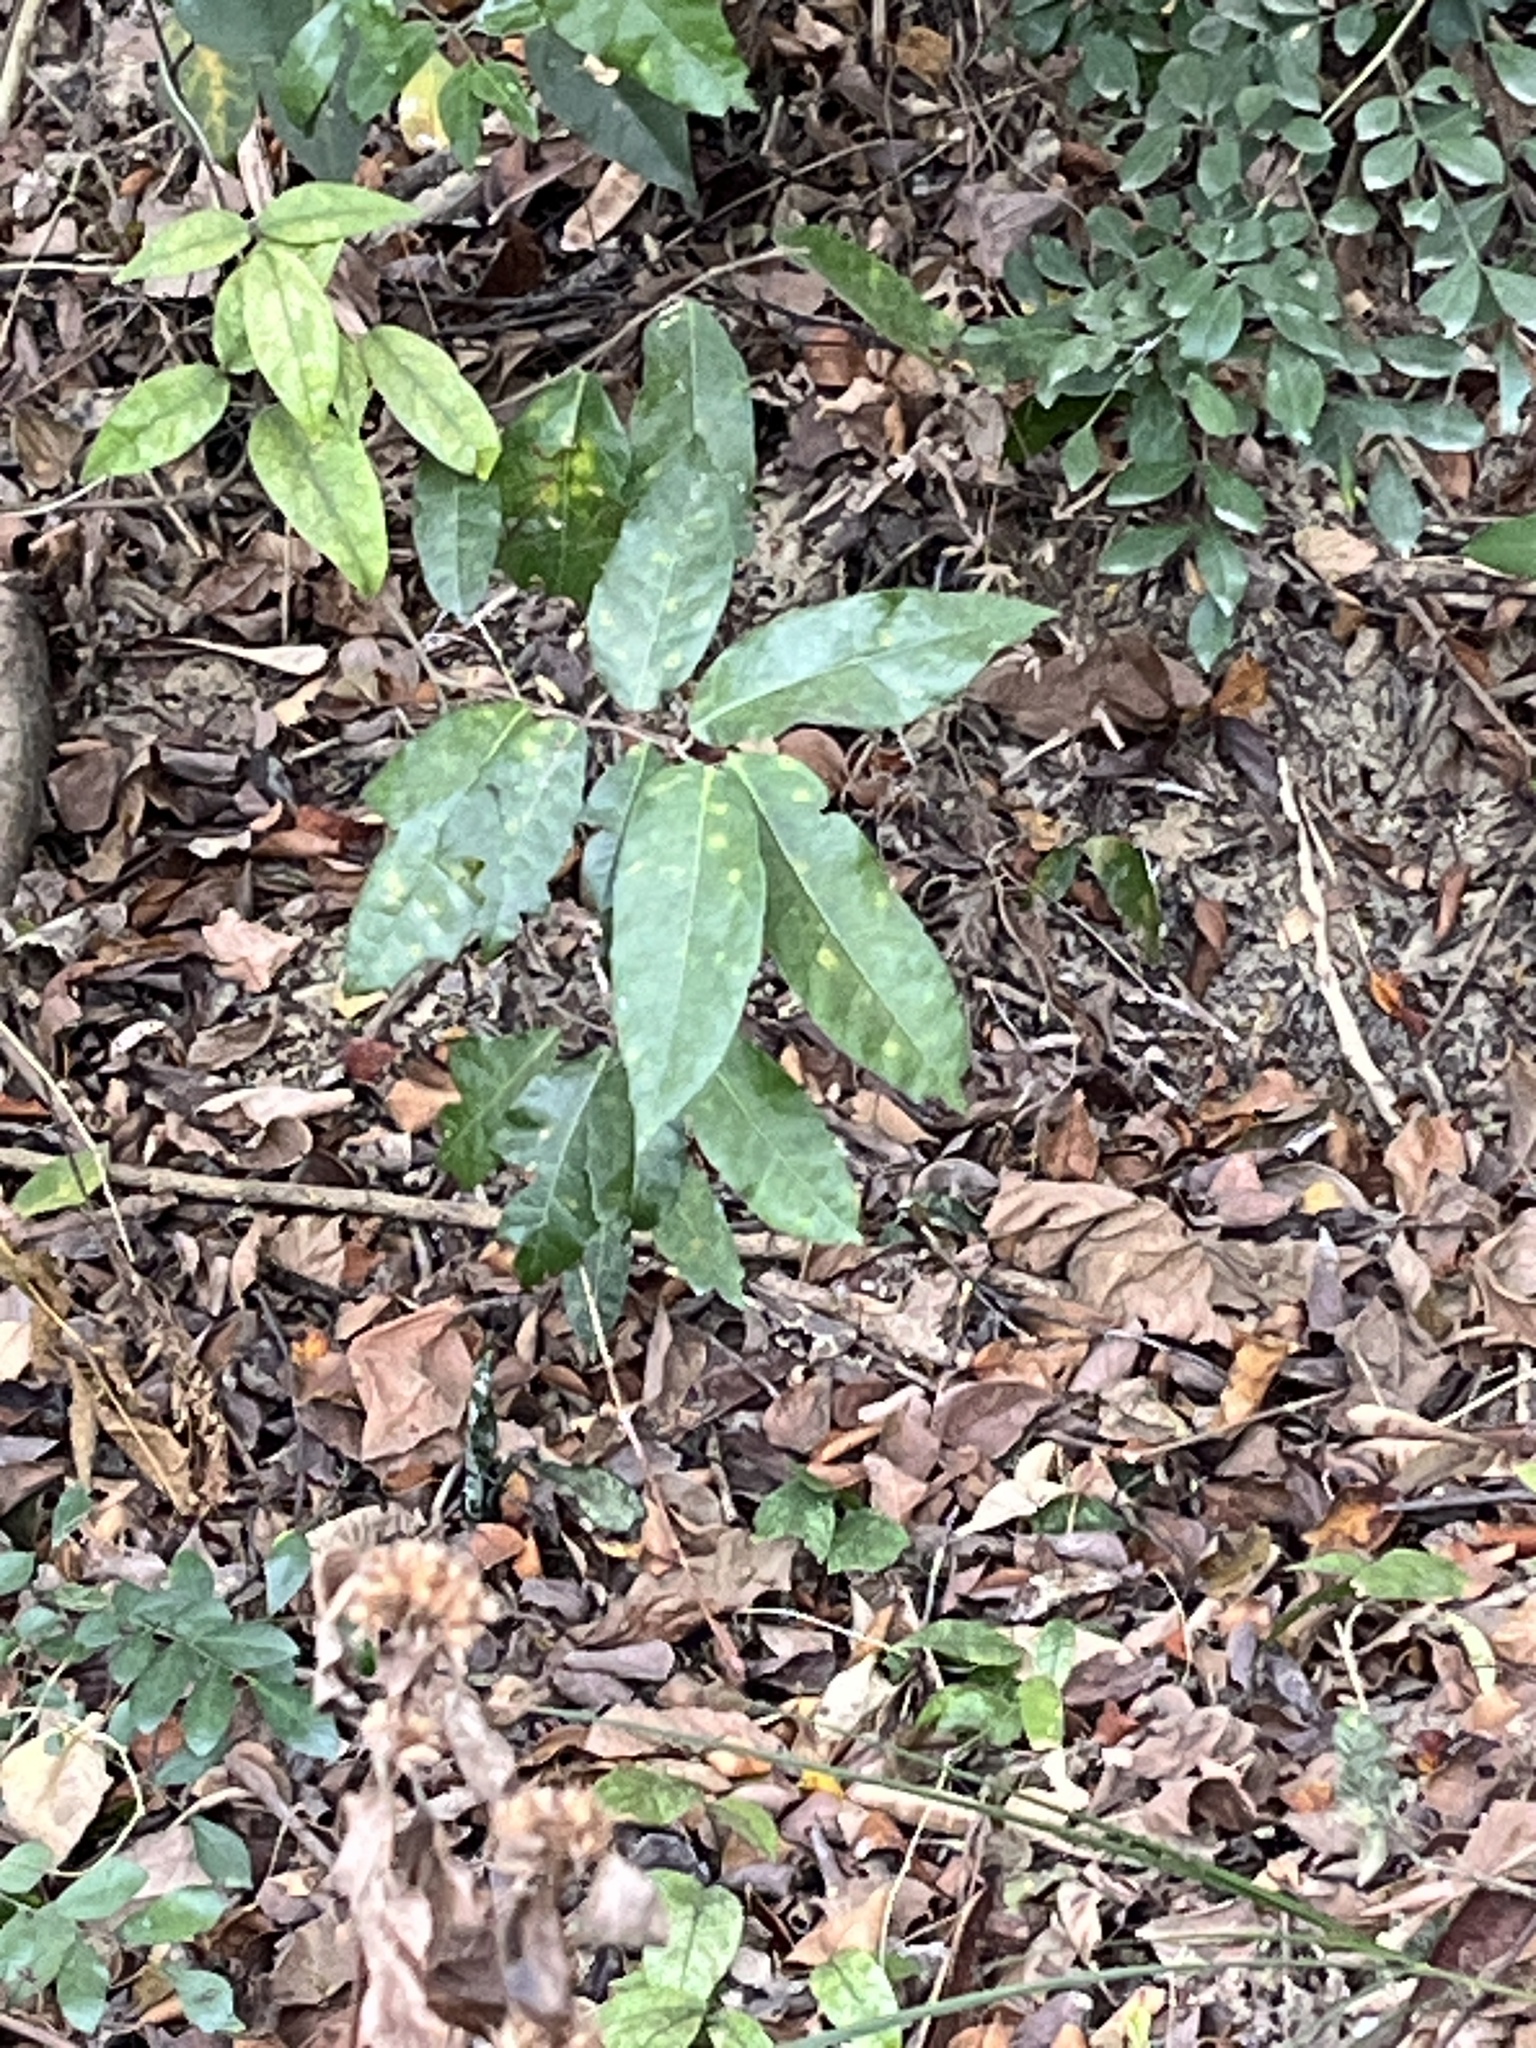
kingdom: Plantae
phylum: Tracheophyta
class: Magnoliopsida
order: Rosales
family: Moraceae
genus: Malaisia
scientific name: Malaisia scandens
